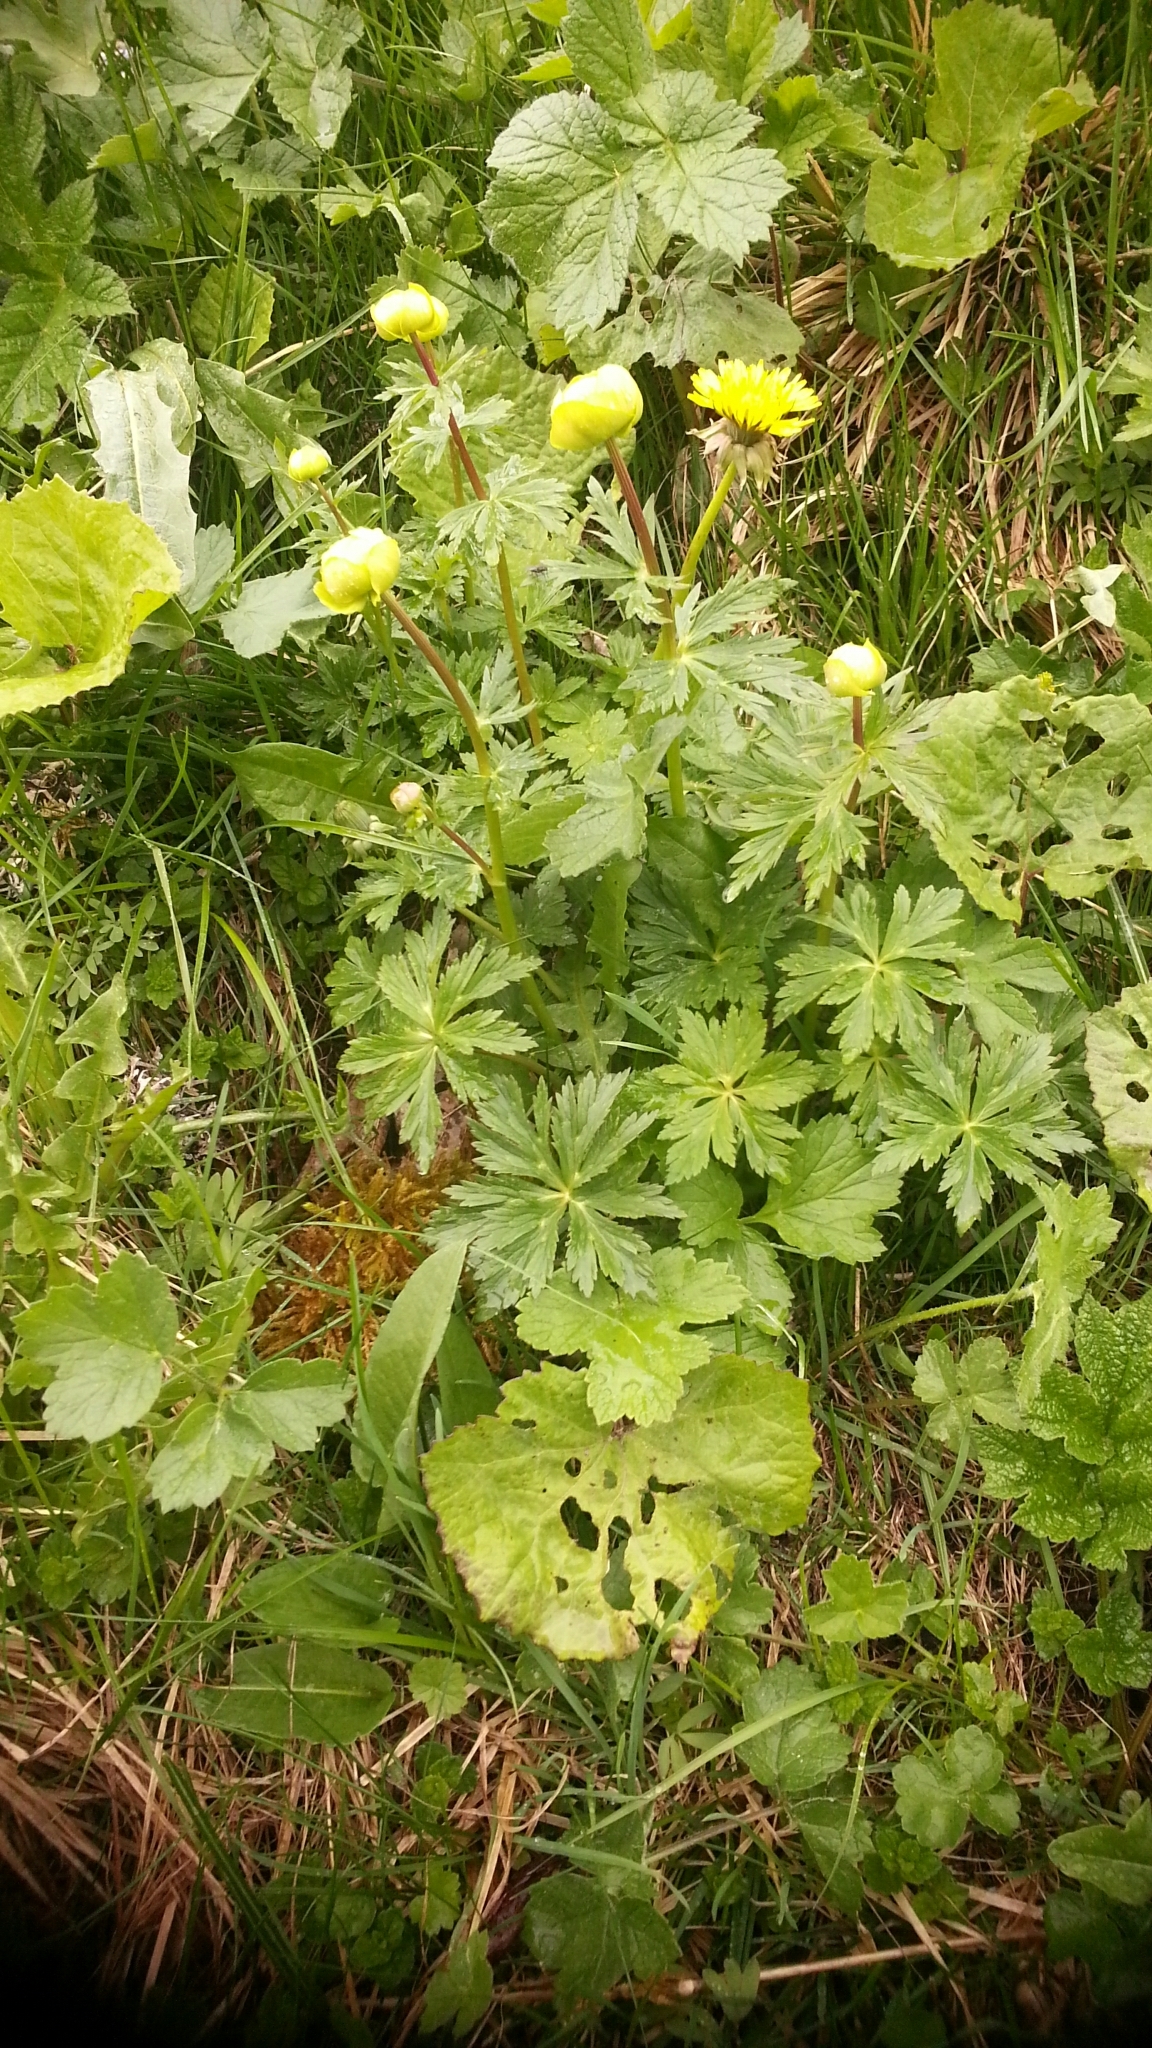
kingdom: Plantae
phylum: Tracheophyta
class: Magnoliopsida
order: Ranunculales
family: Ranunculaceae
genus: Trollius
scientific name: Trollius europaeus
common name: European globeflower
